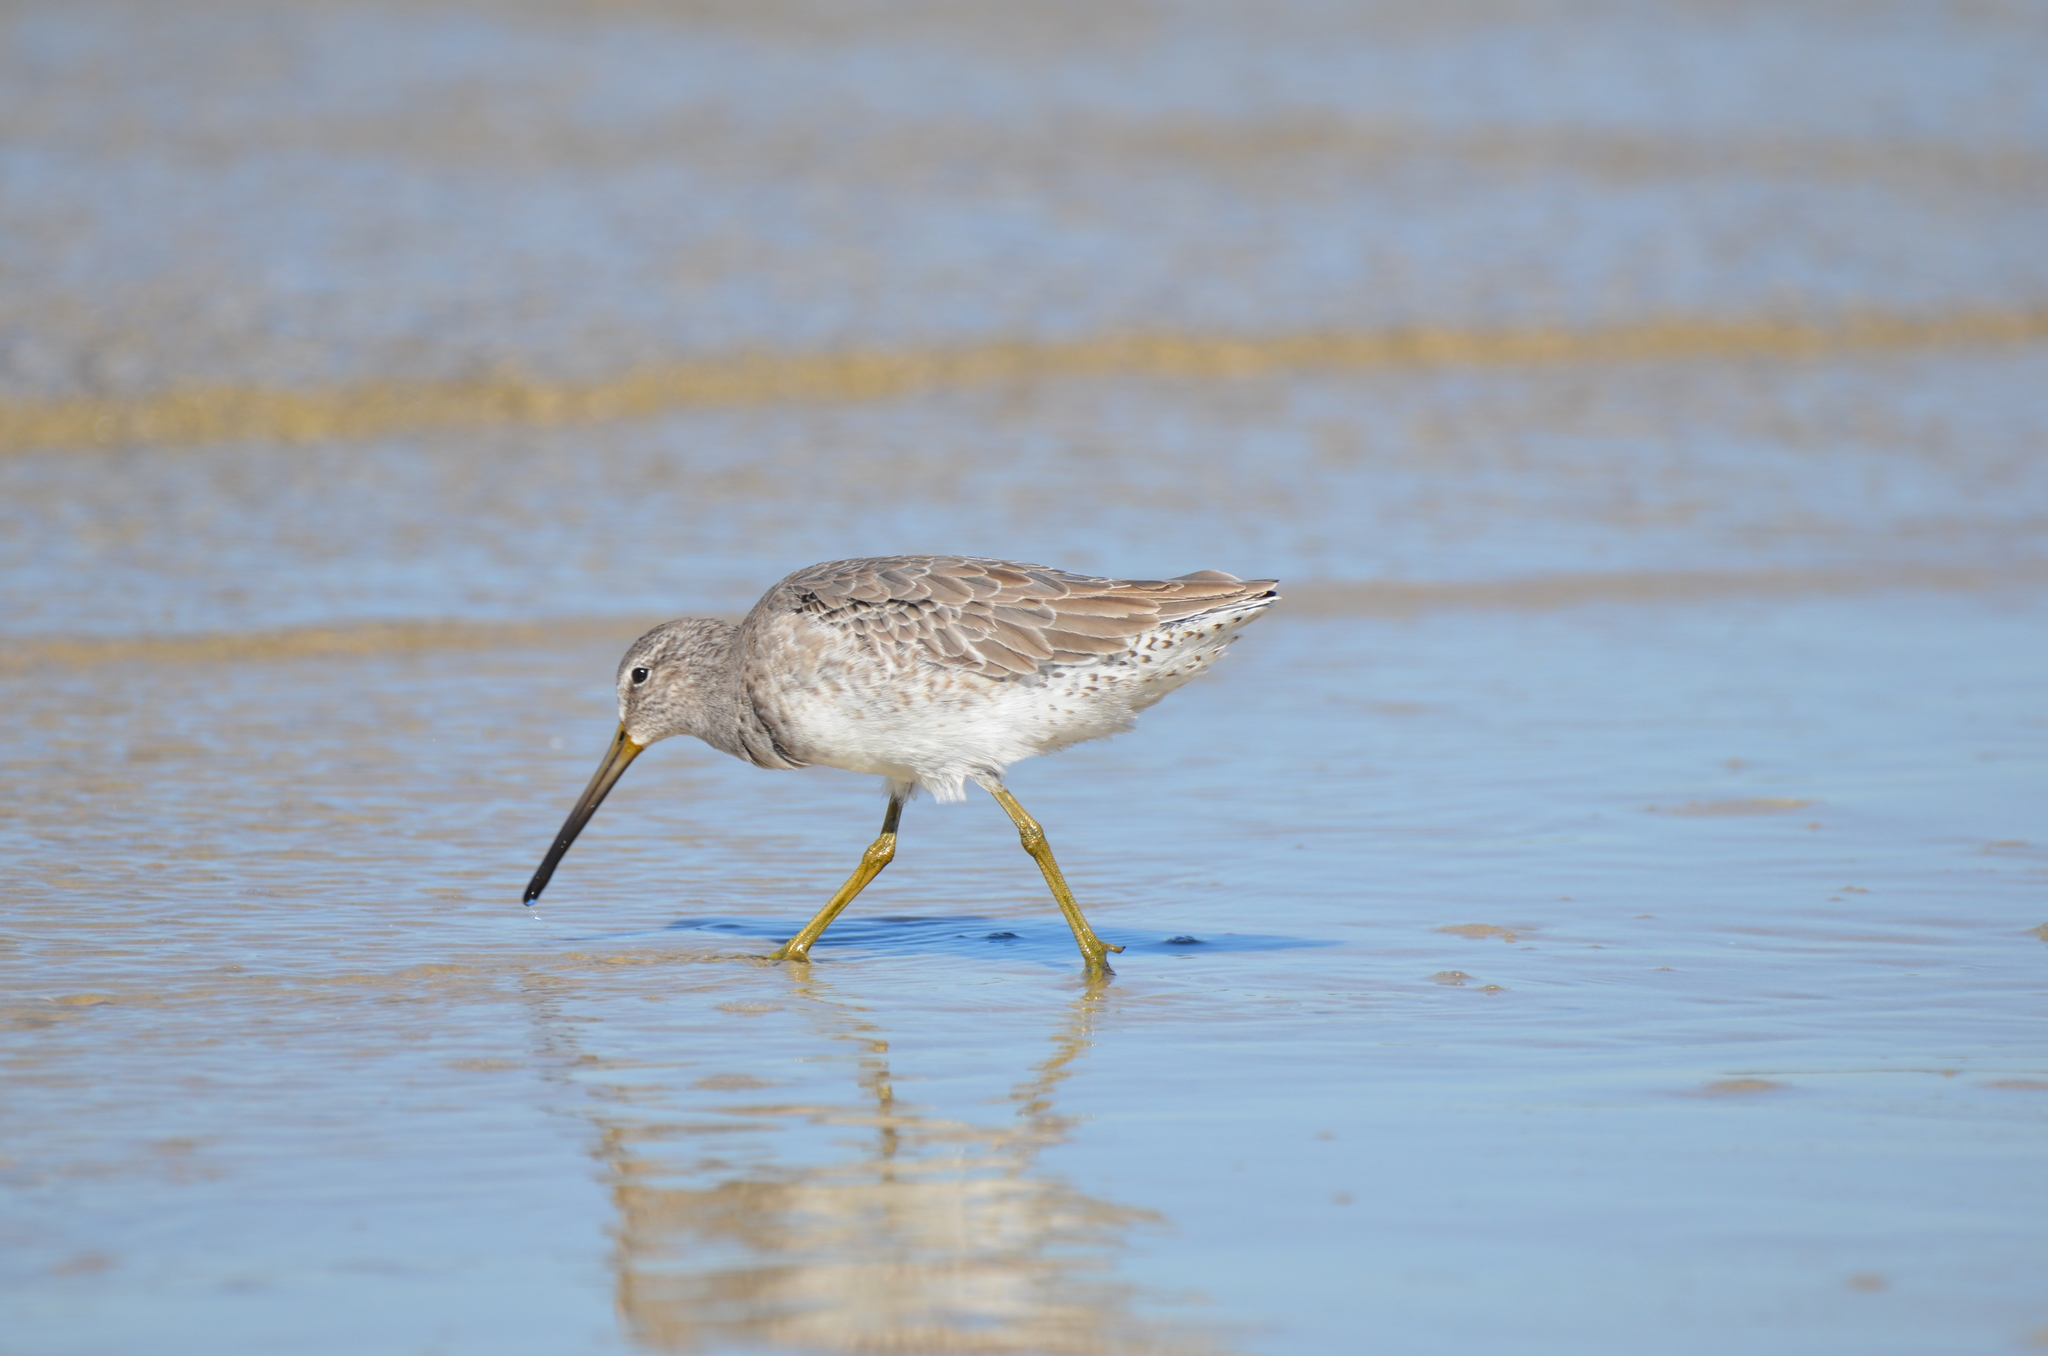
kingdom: Animalia
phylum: Chordata
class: Aves
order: Charadriiformes
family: Scolopacidae
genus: Limnodromus
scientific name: Limnodromus griseus
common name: Short-billed dowitcher
